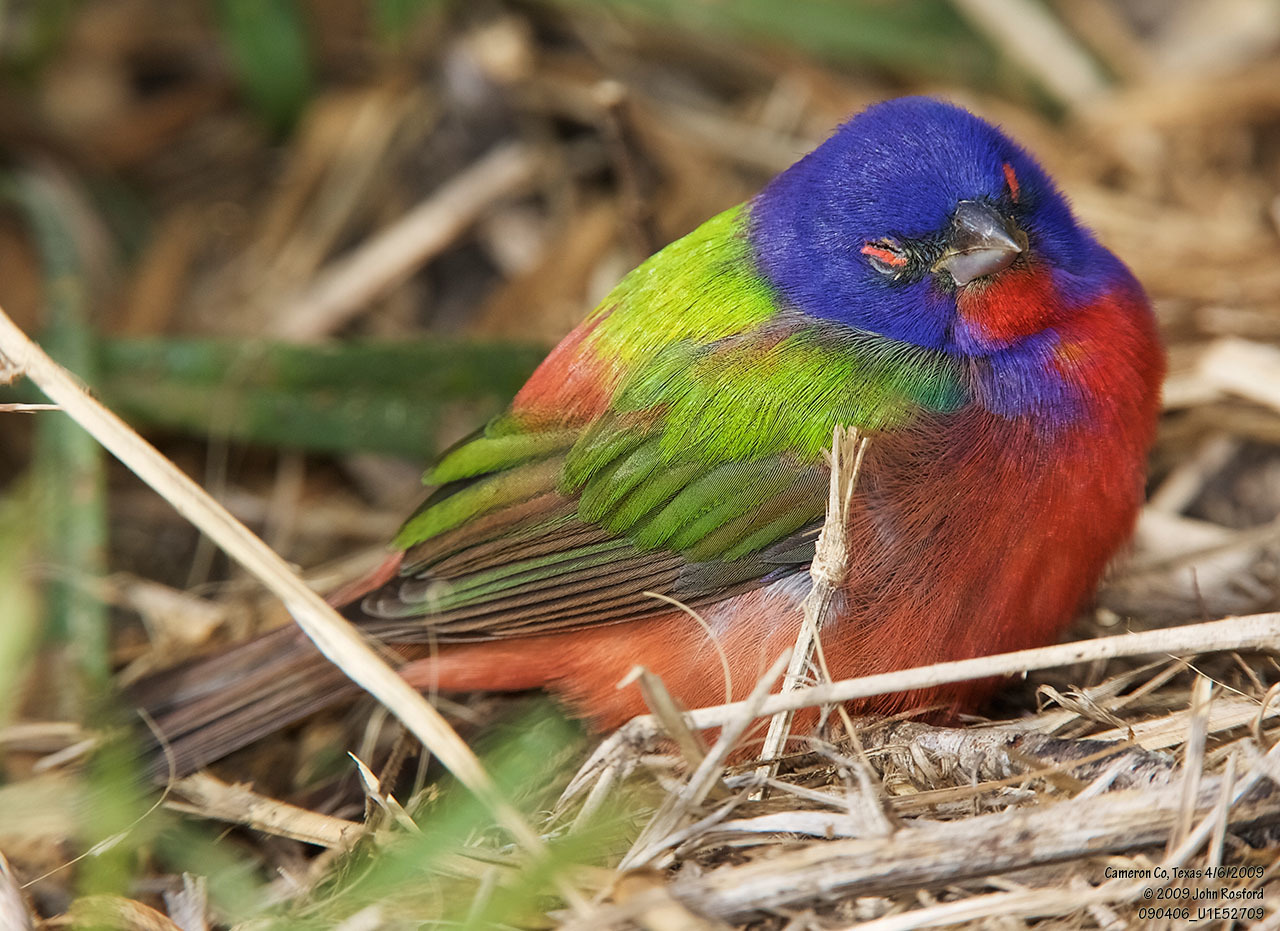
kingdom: Animalia
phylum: Chordata
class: Aves
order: Passeriformes
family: Cardinalidae
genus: Passerina
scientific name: Passerina ciris
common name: Painted bunting
